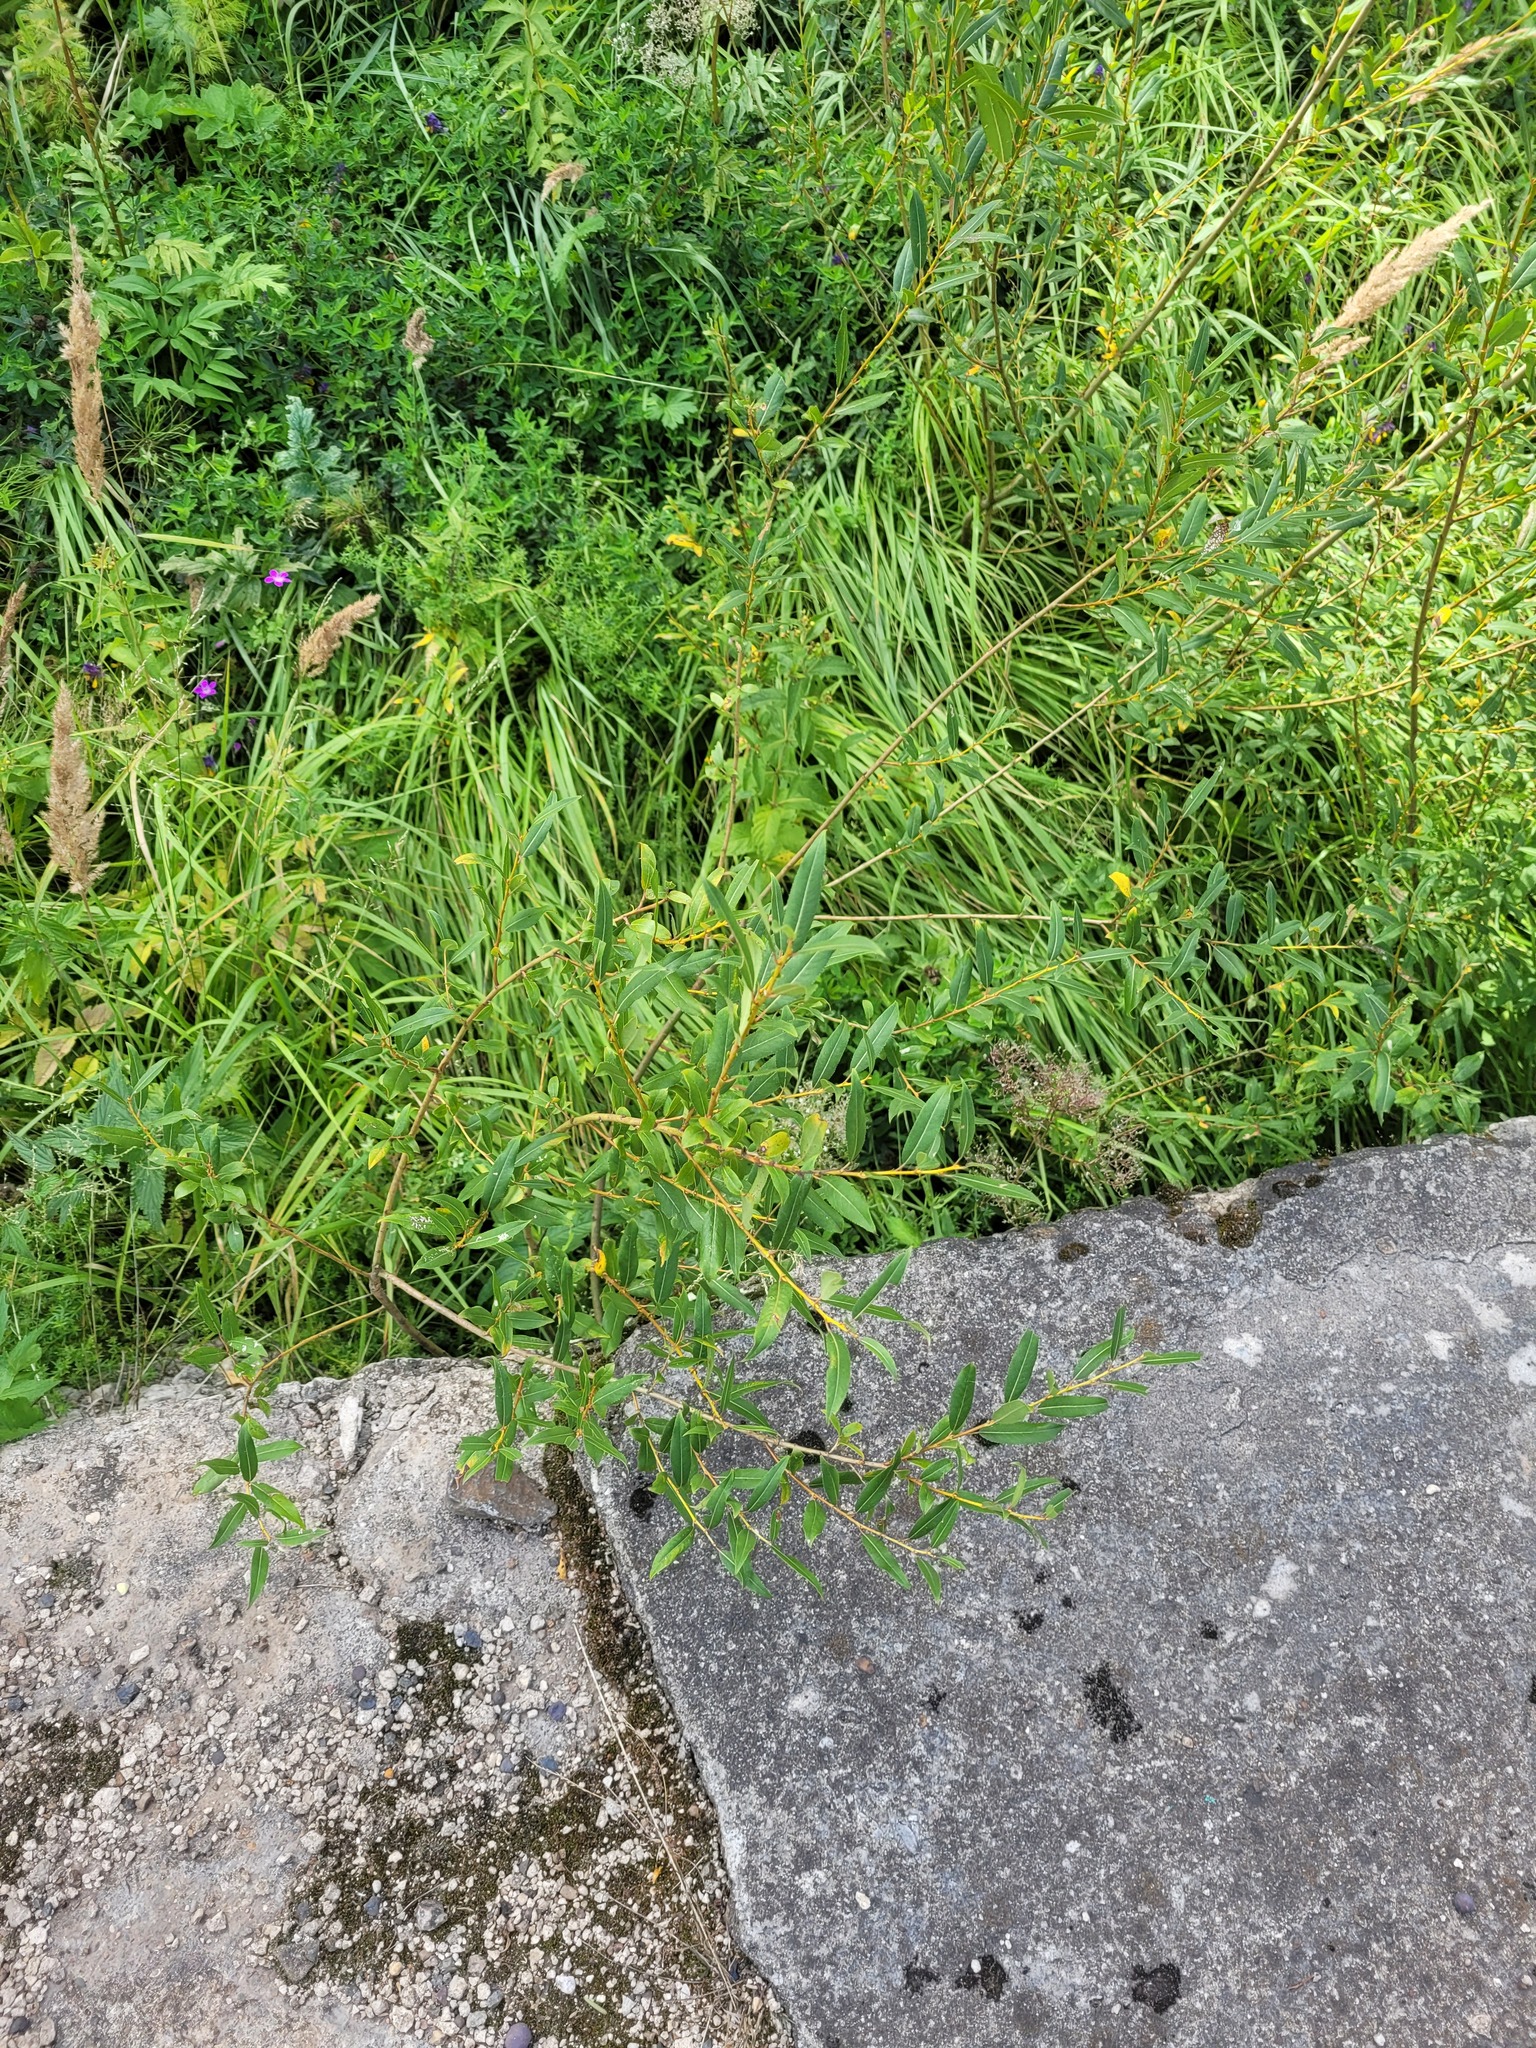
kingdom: Plantae
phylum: Tracheophyta
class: Magnoliopsida
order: Malpighiales
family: Salicaceae
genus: Salix
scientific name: Salix triandra
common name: Almond willow
